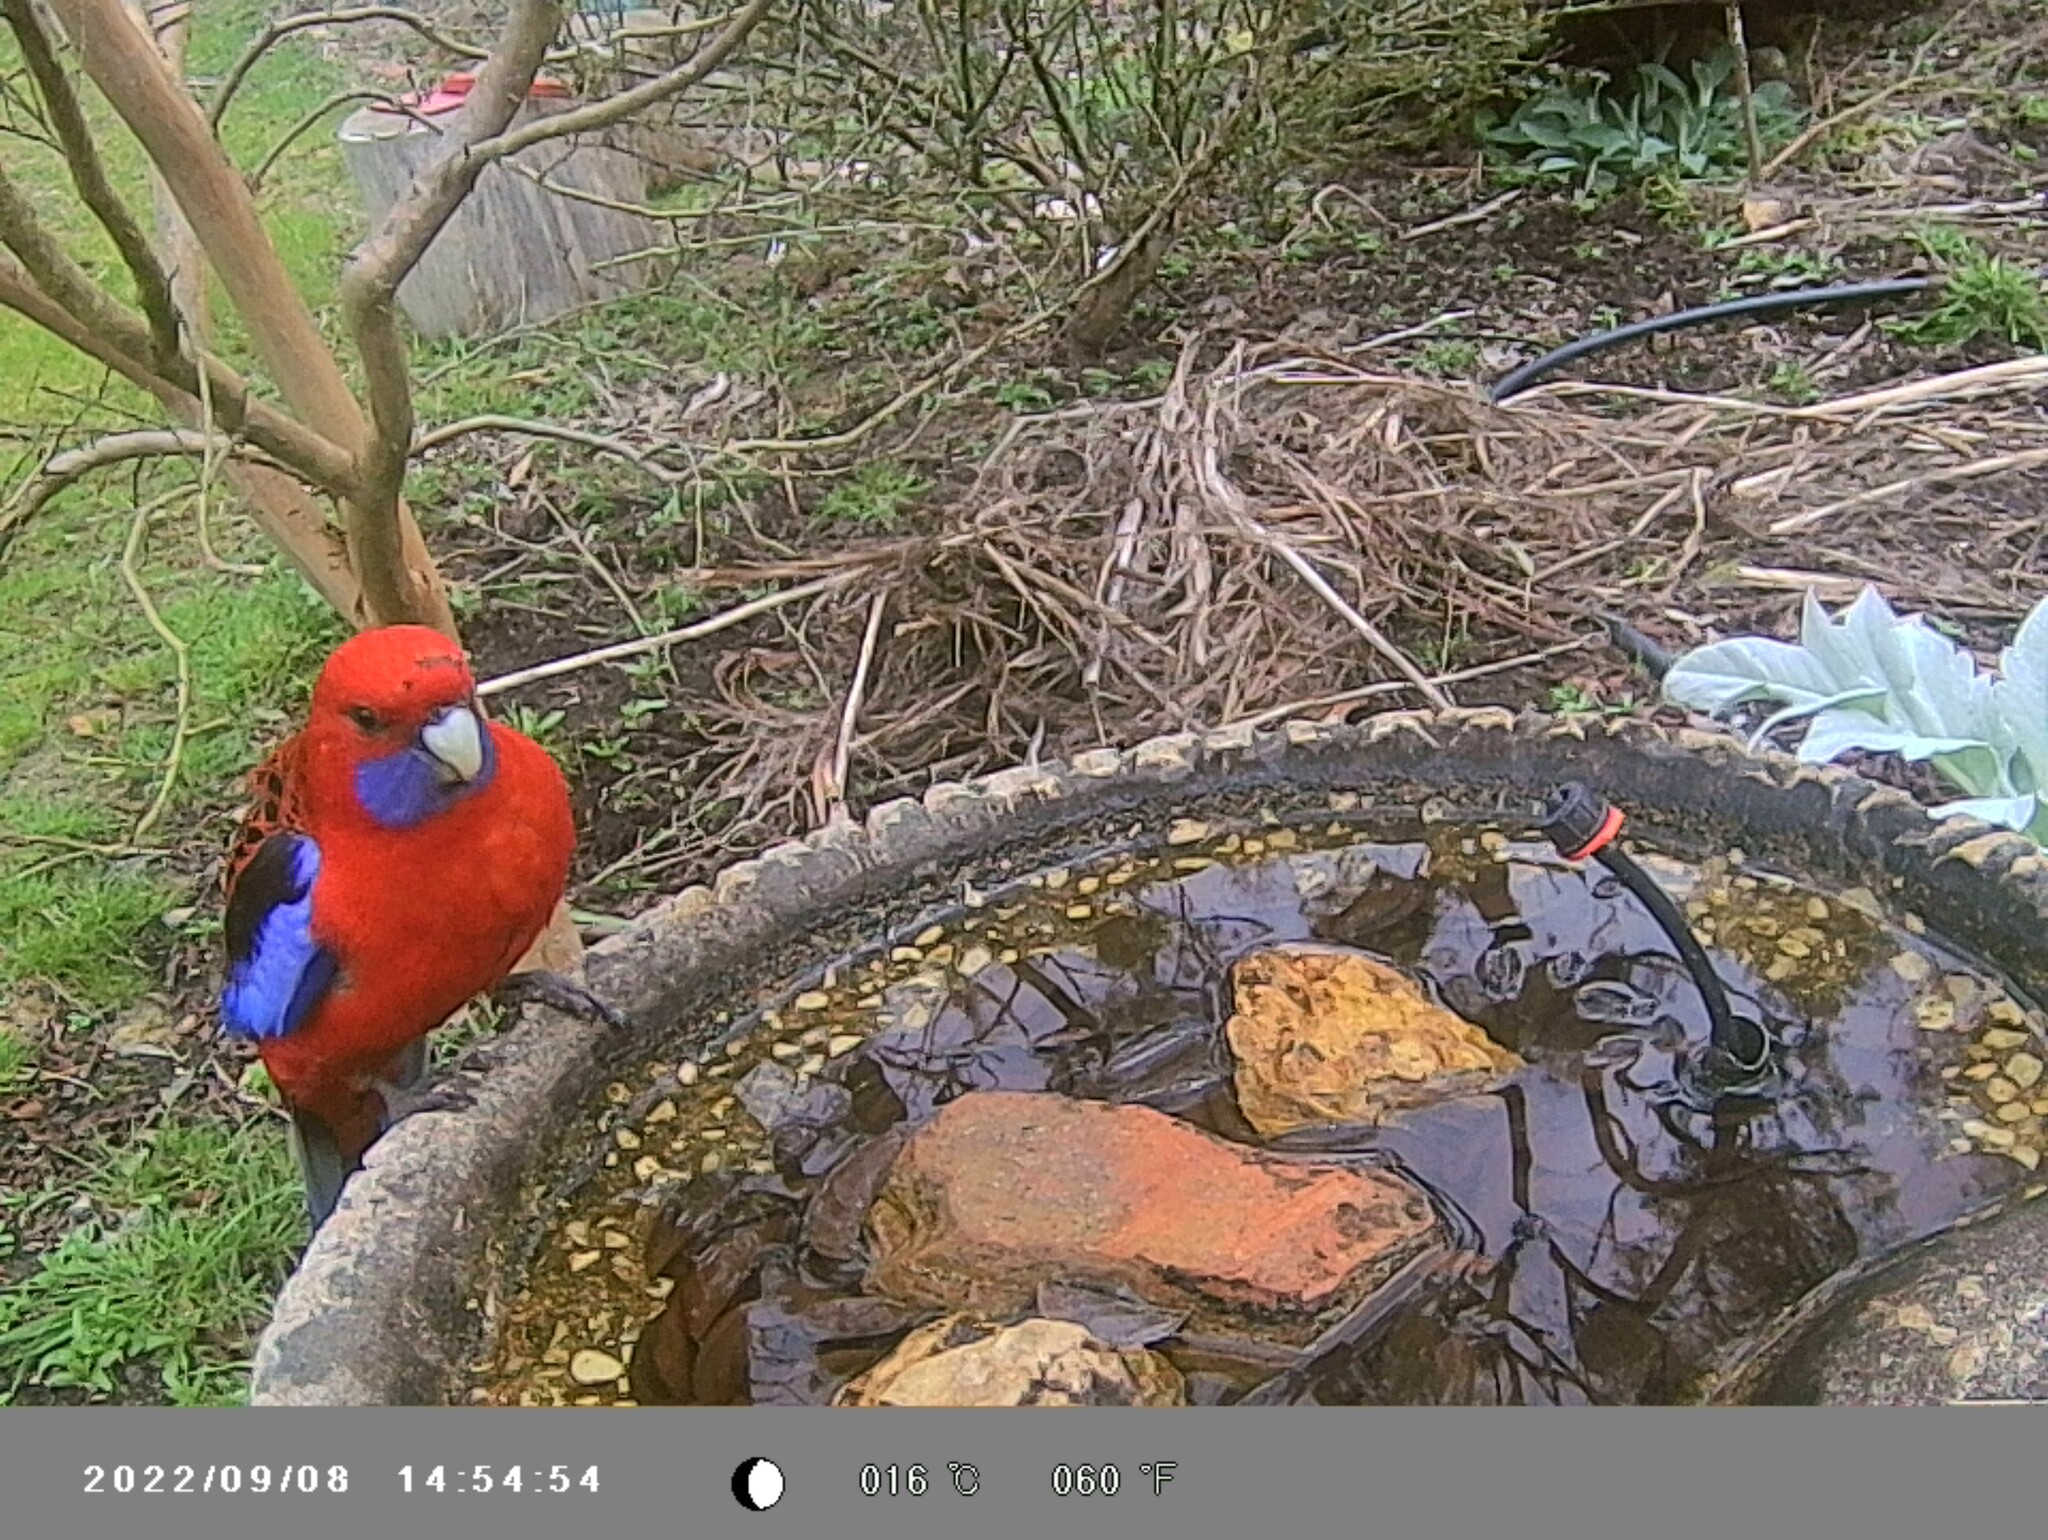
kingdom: Animalia
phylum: Chordata
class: Aves
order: Psittaciformes
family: Psittacidae
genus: Platycercus
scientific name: Platycercus elegans
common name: Crimson rosella
